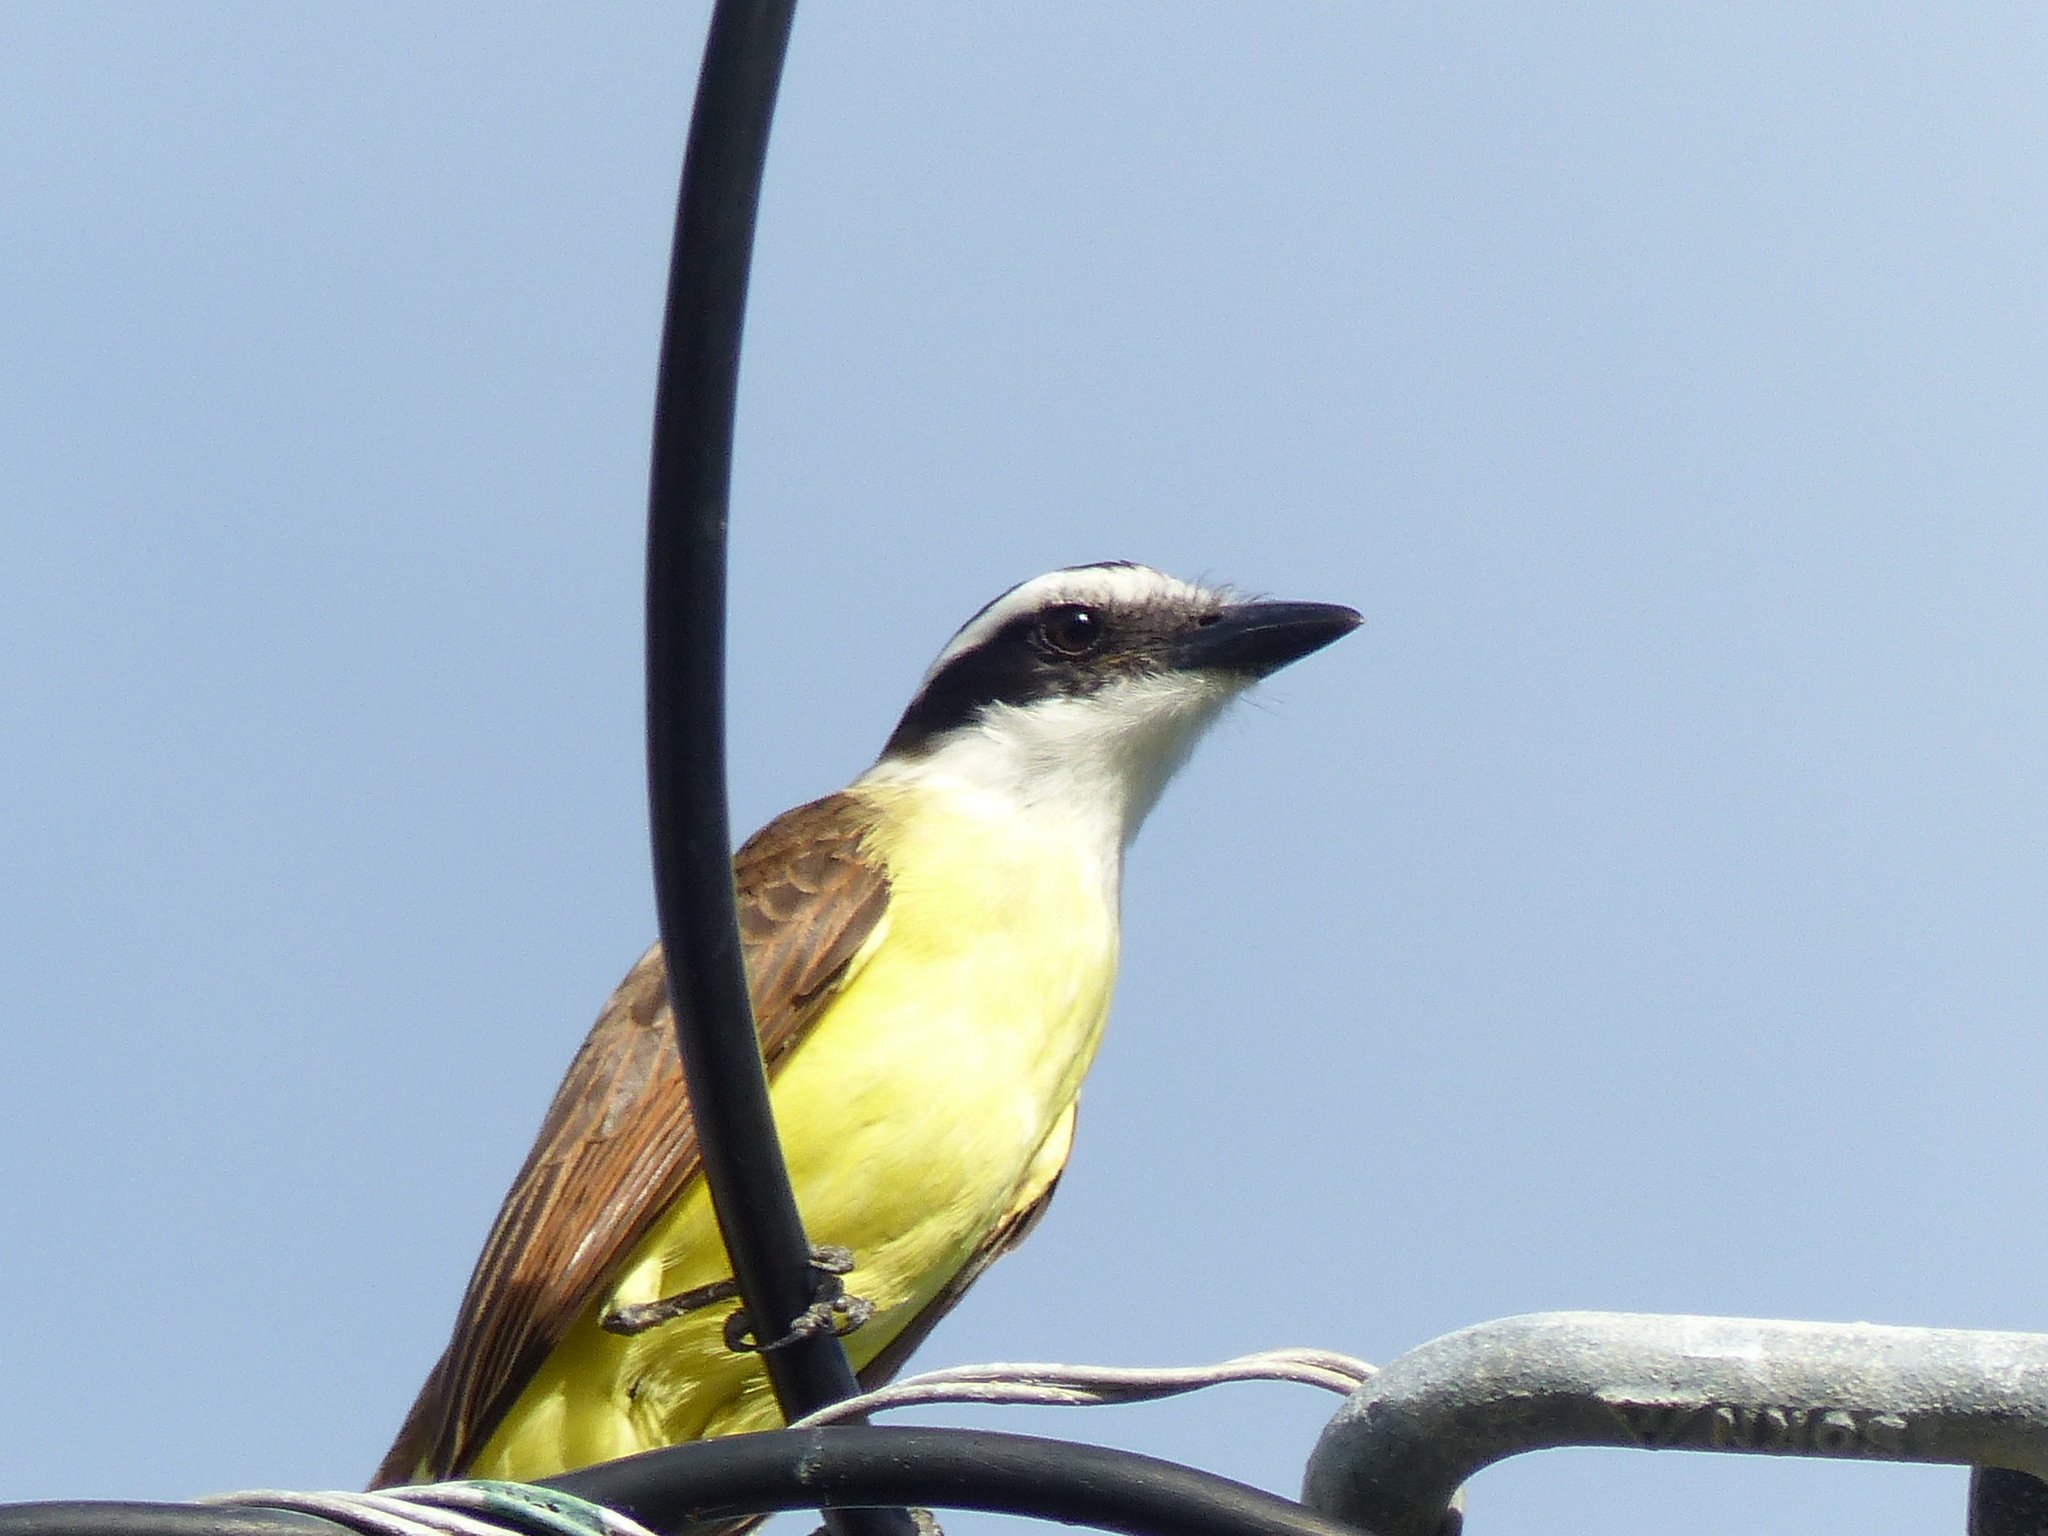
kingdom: Animalia
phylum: Chordata
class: Aves
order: Passeriformes
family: Tyrannidae
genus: Pitangus
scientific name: Pitangus sulphuratus
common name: Great kiskadee
